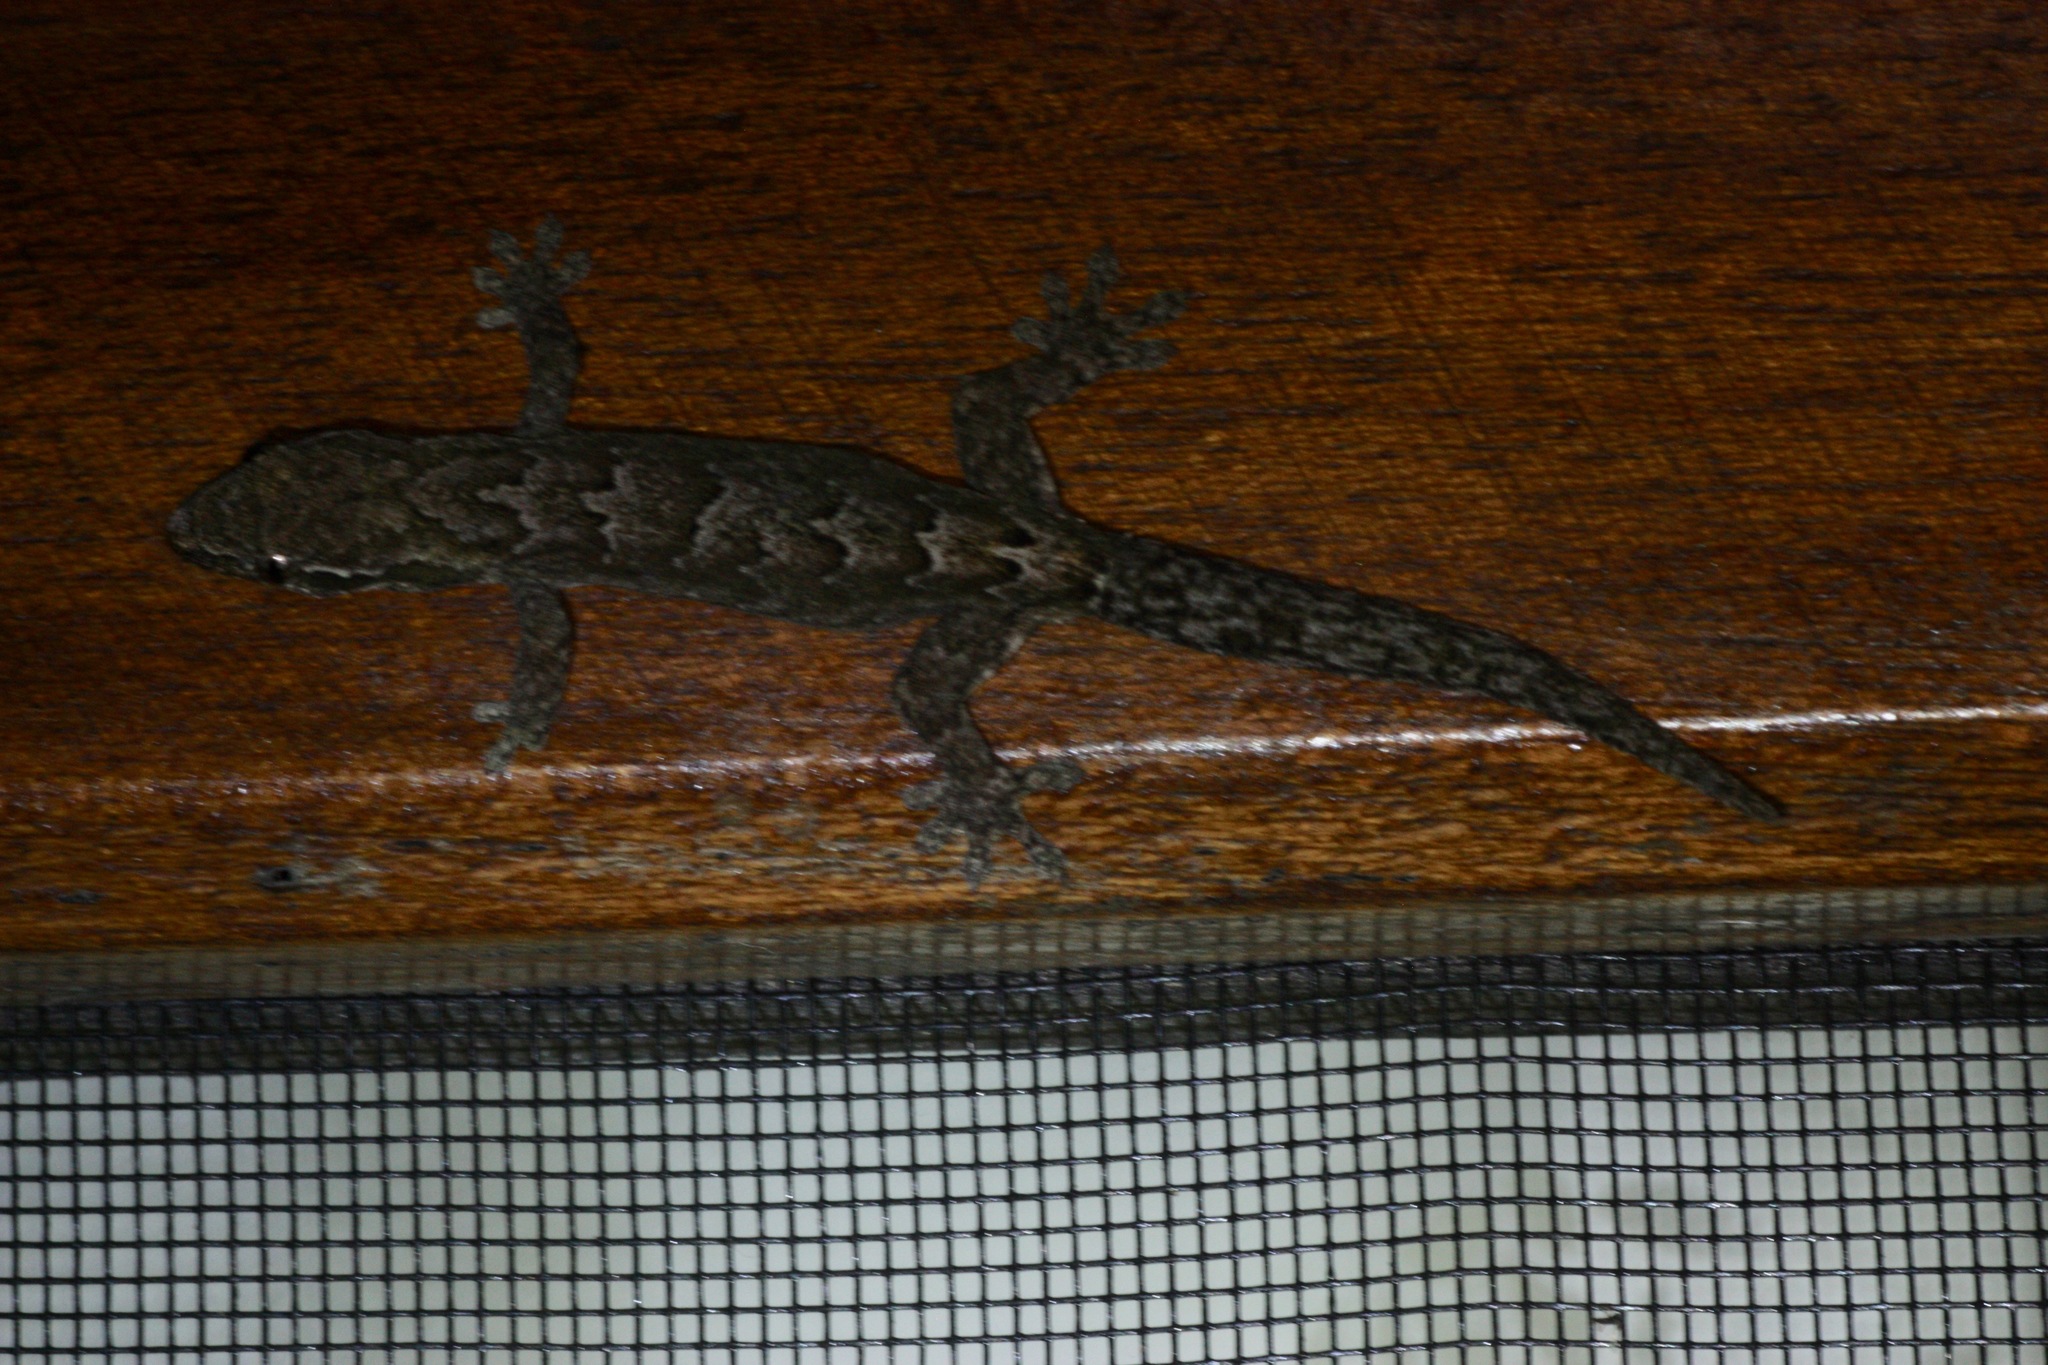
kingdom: Animalia
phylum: Chordata
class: Squamata
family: Gekkonidae
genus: Lepidodactylus
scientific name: Lepidodactylus lugubris
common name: Mourning gecko
